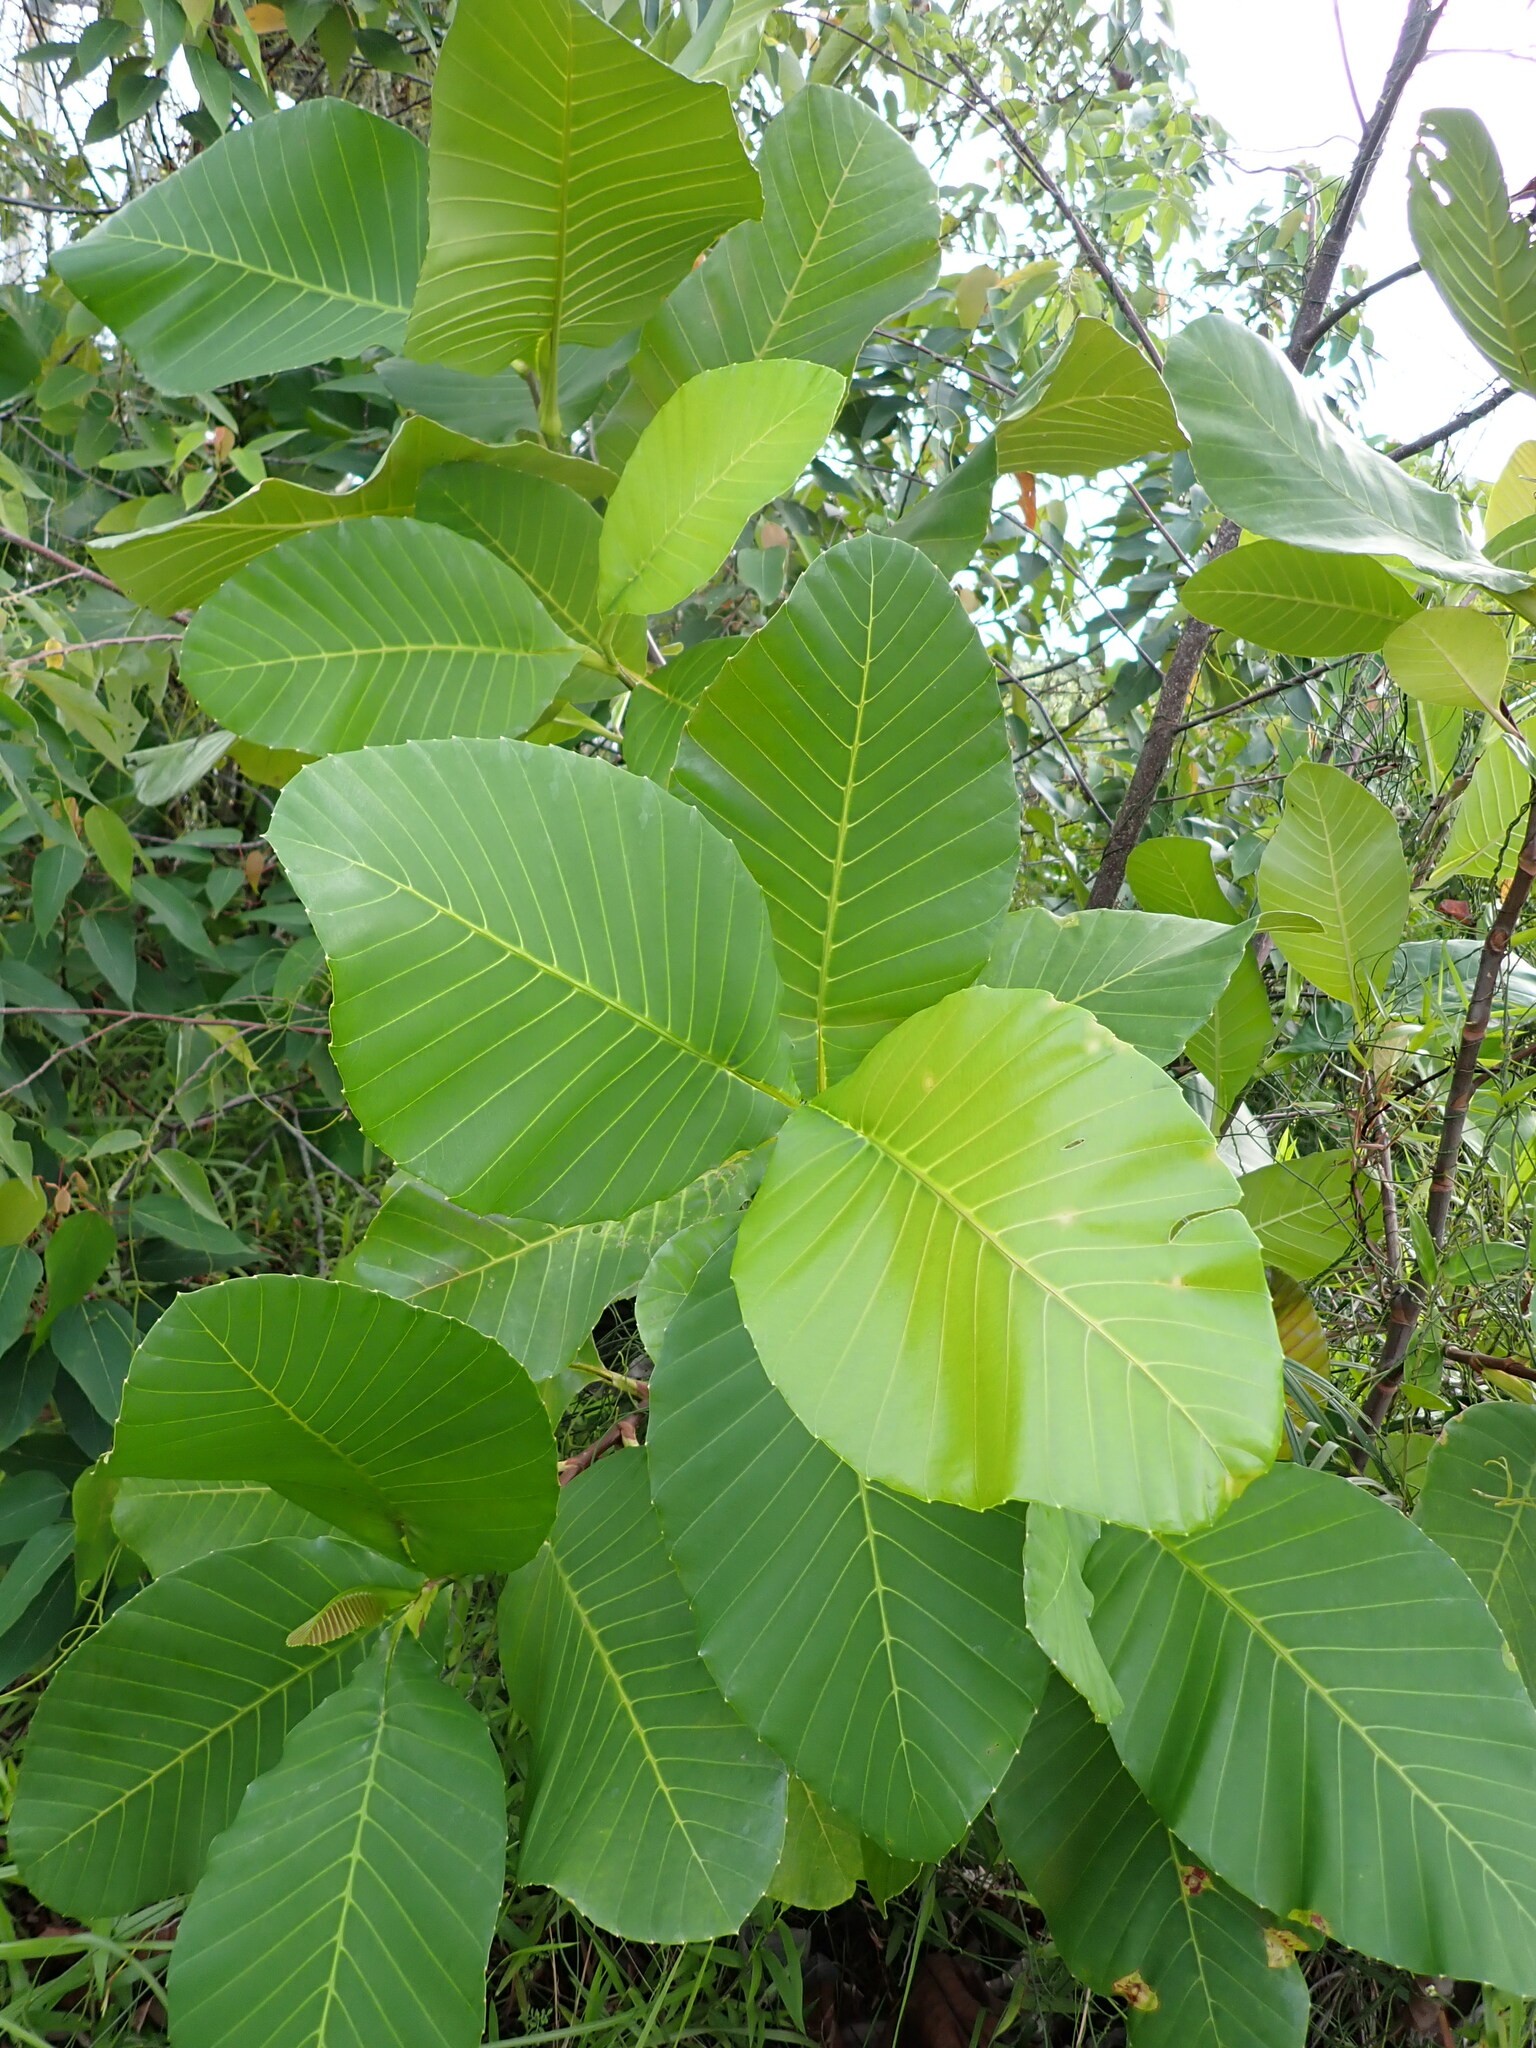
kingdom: Plantae
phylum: Tracheophyta
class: Magnoliopsida
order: Dilleniales
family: Dilleniaceae
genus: Dillenia
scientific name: Dillenia suffruticosa
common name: Shrubby dillenia
